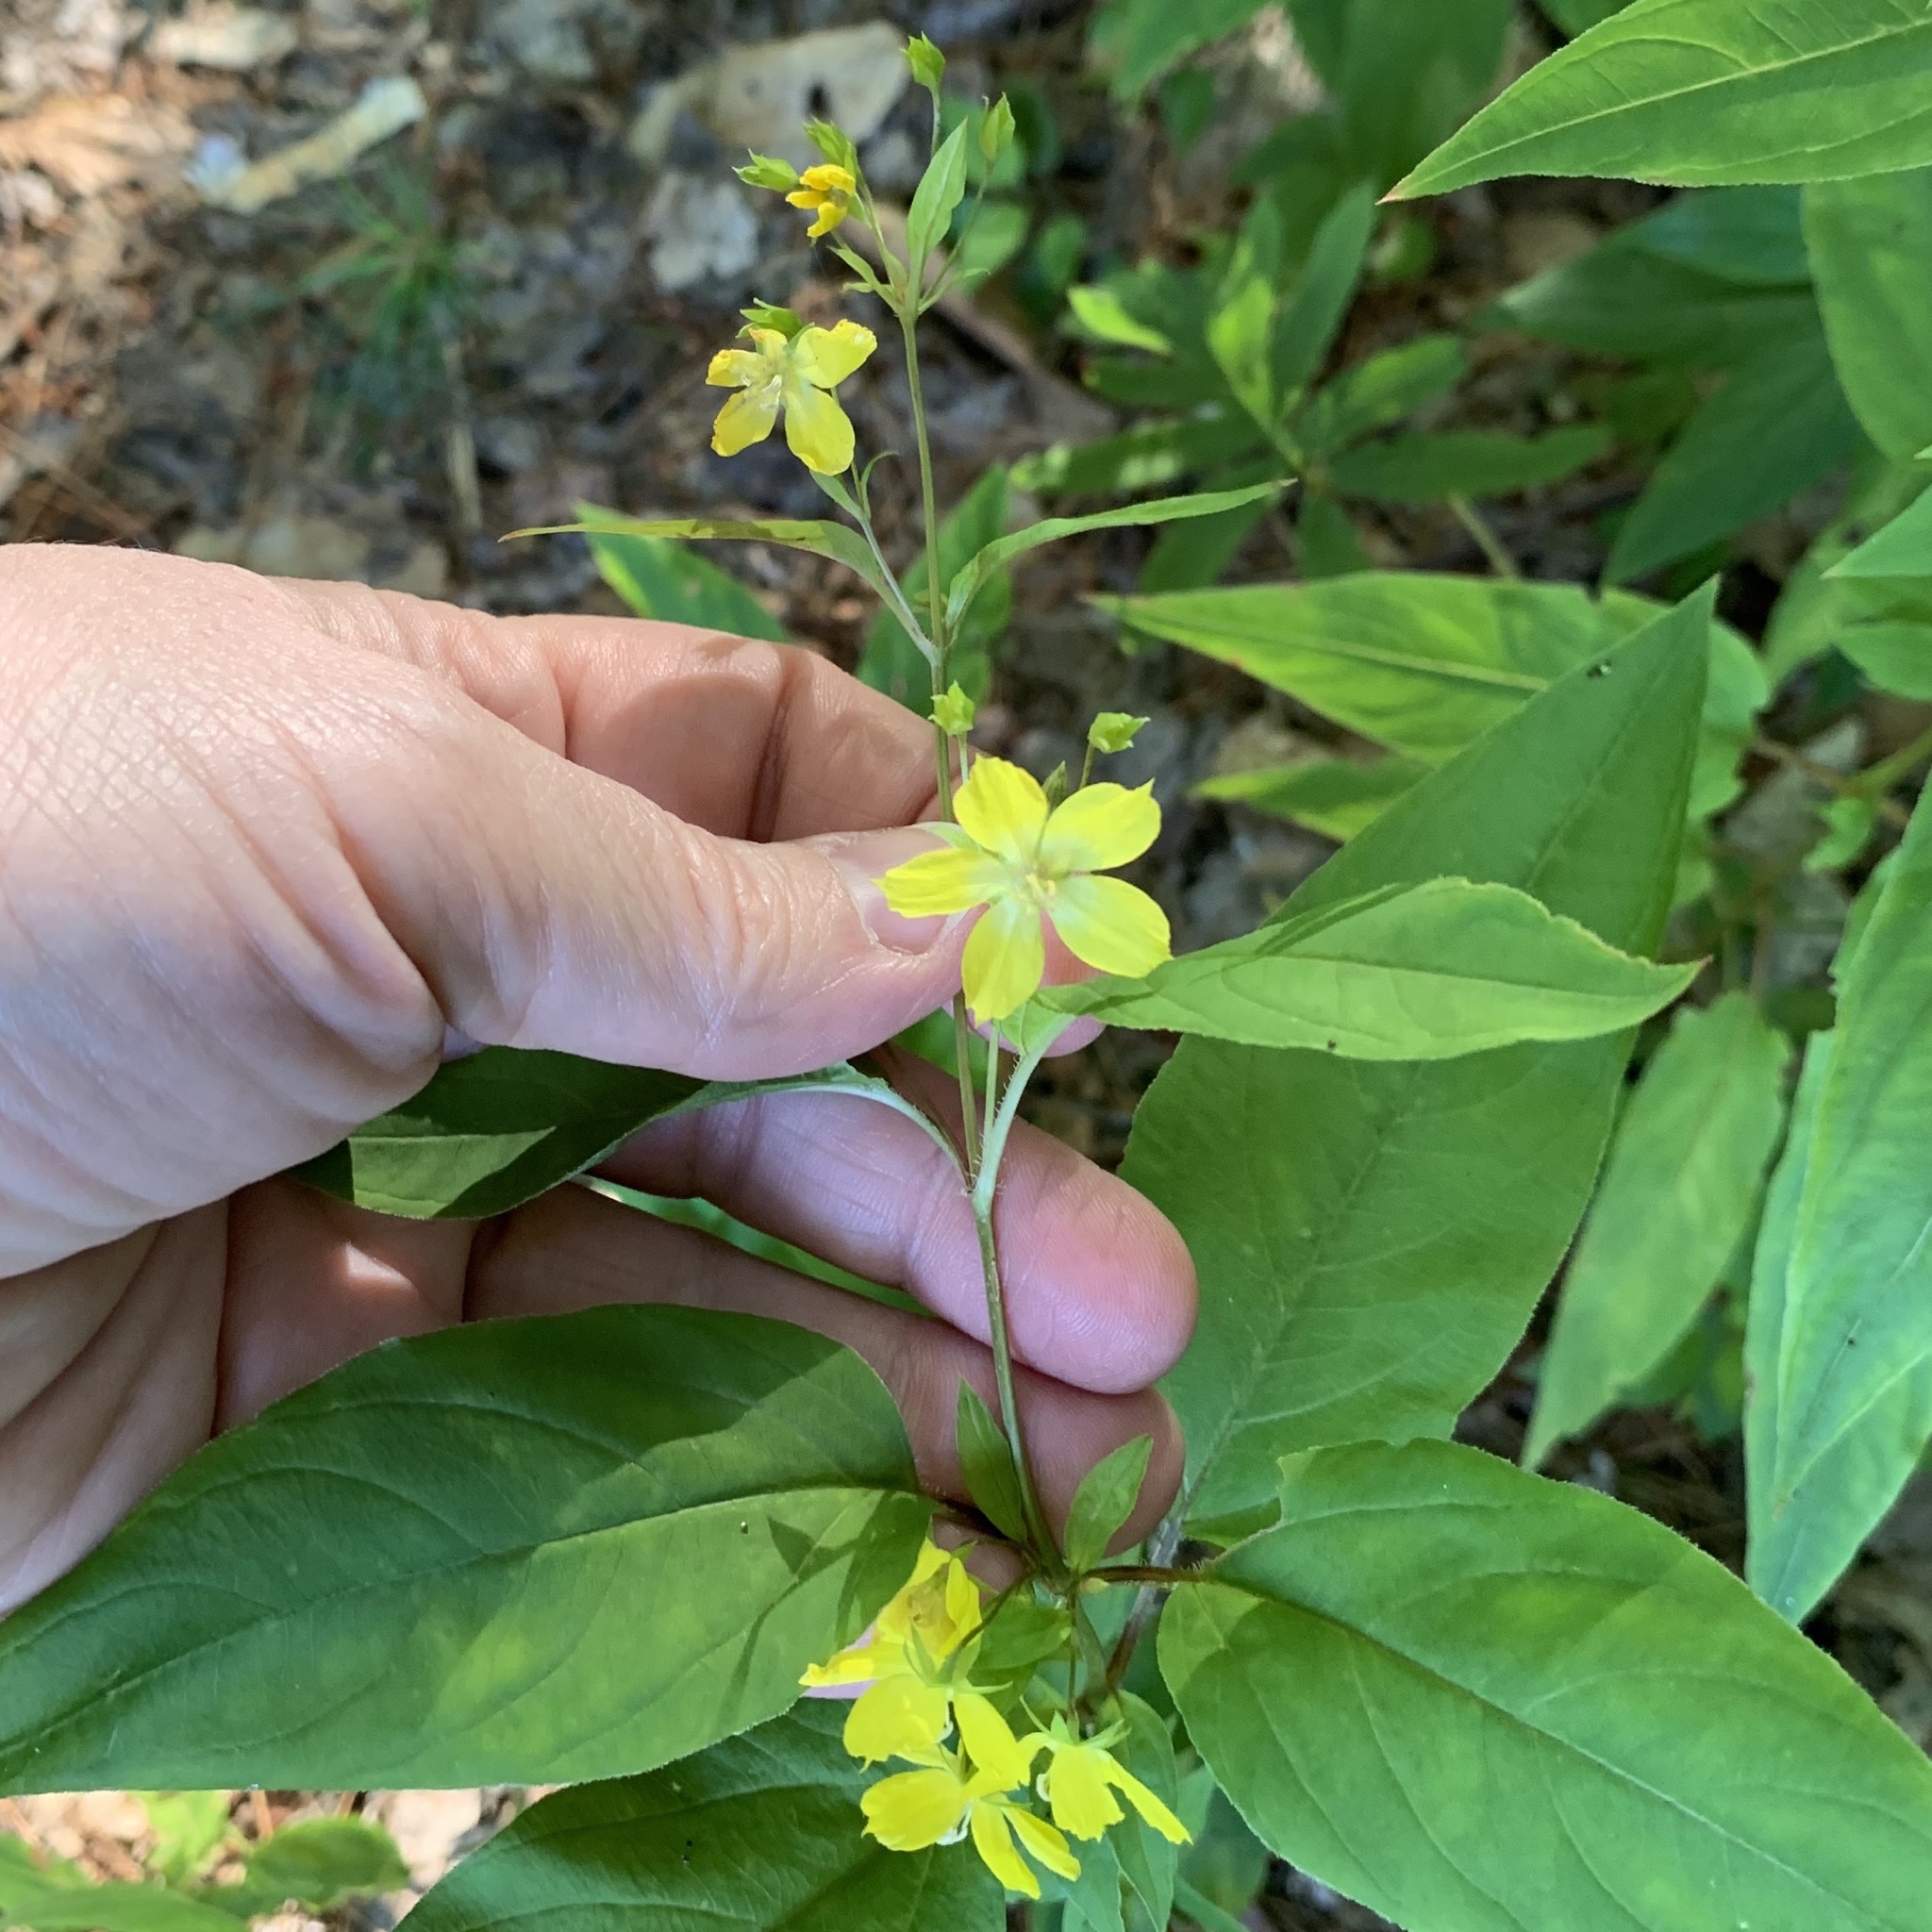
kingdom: Plantae
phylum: Tracheophyta
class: Magnoliopsida
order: Ericales
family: Primulaceae
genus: Lysimachia
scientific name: Lysimachia ciliata
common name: Fringed loosestrife
